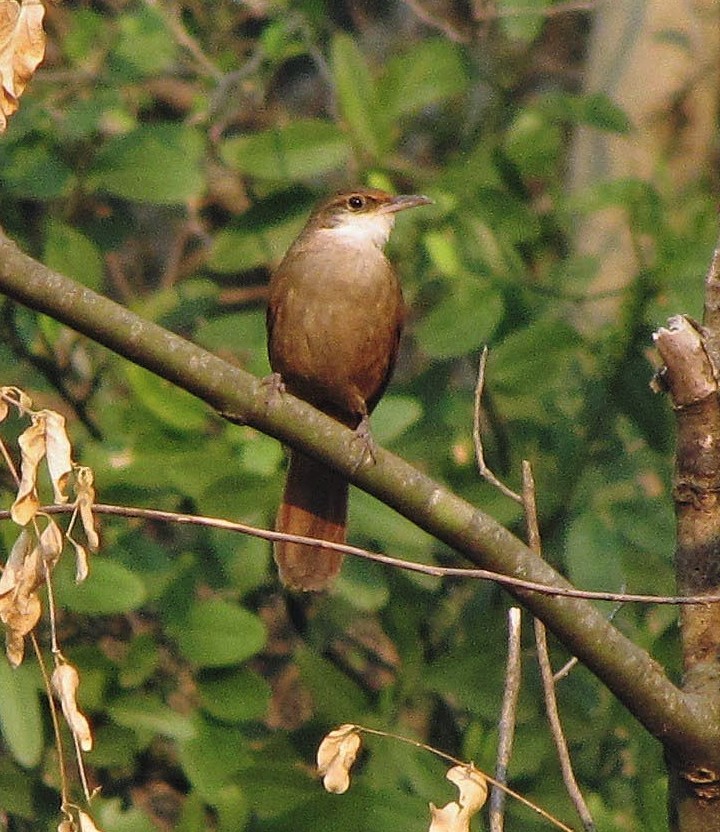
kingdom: Animalia
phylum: Chordata
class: Aves
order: Passeriformes
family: Furnariidae
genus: Upucerthia
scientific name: Upucerthia certhioides
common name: Chaco earthcreeper
